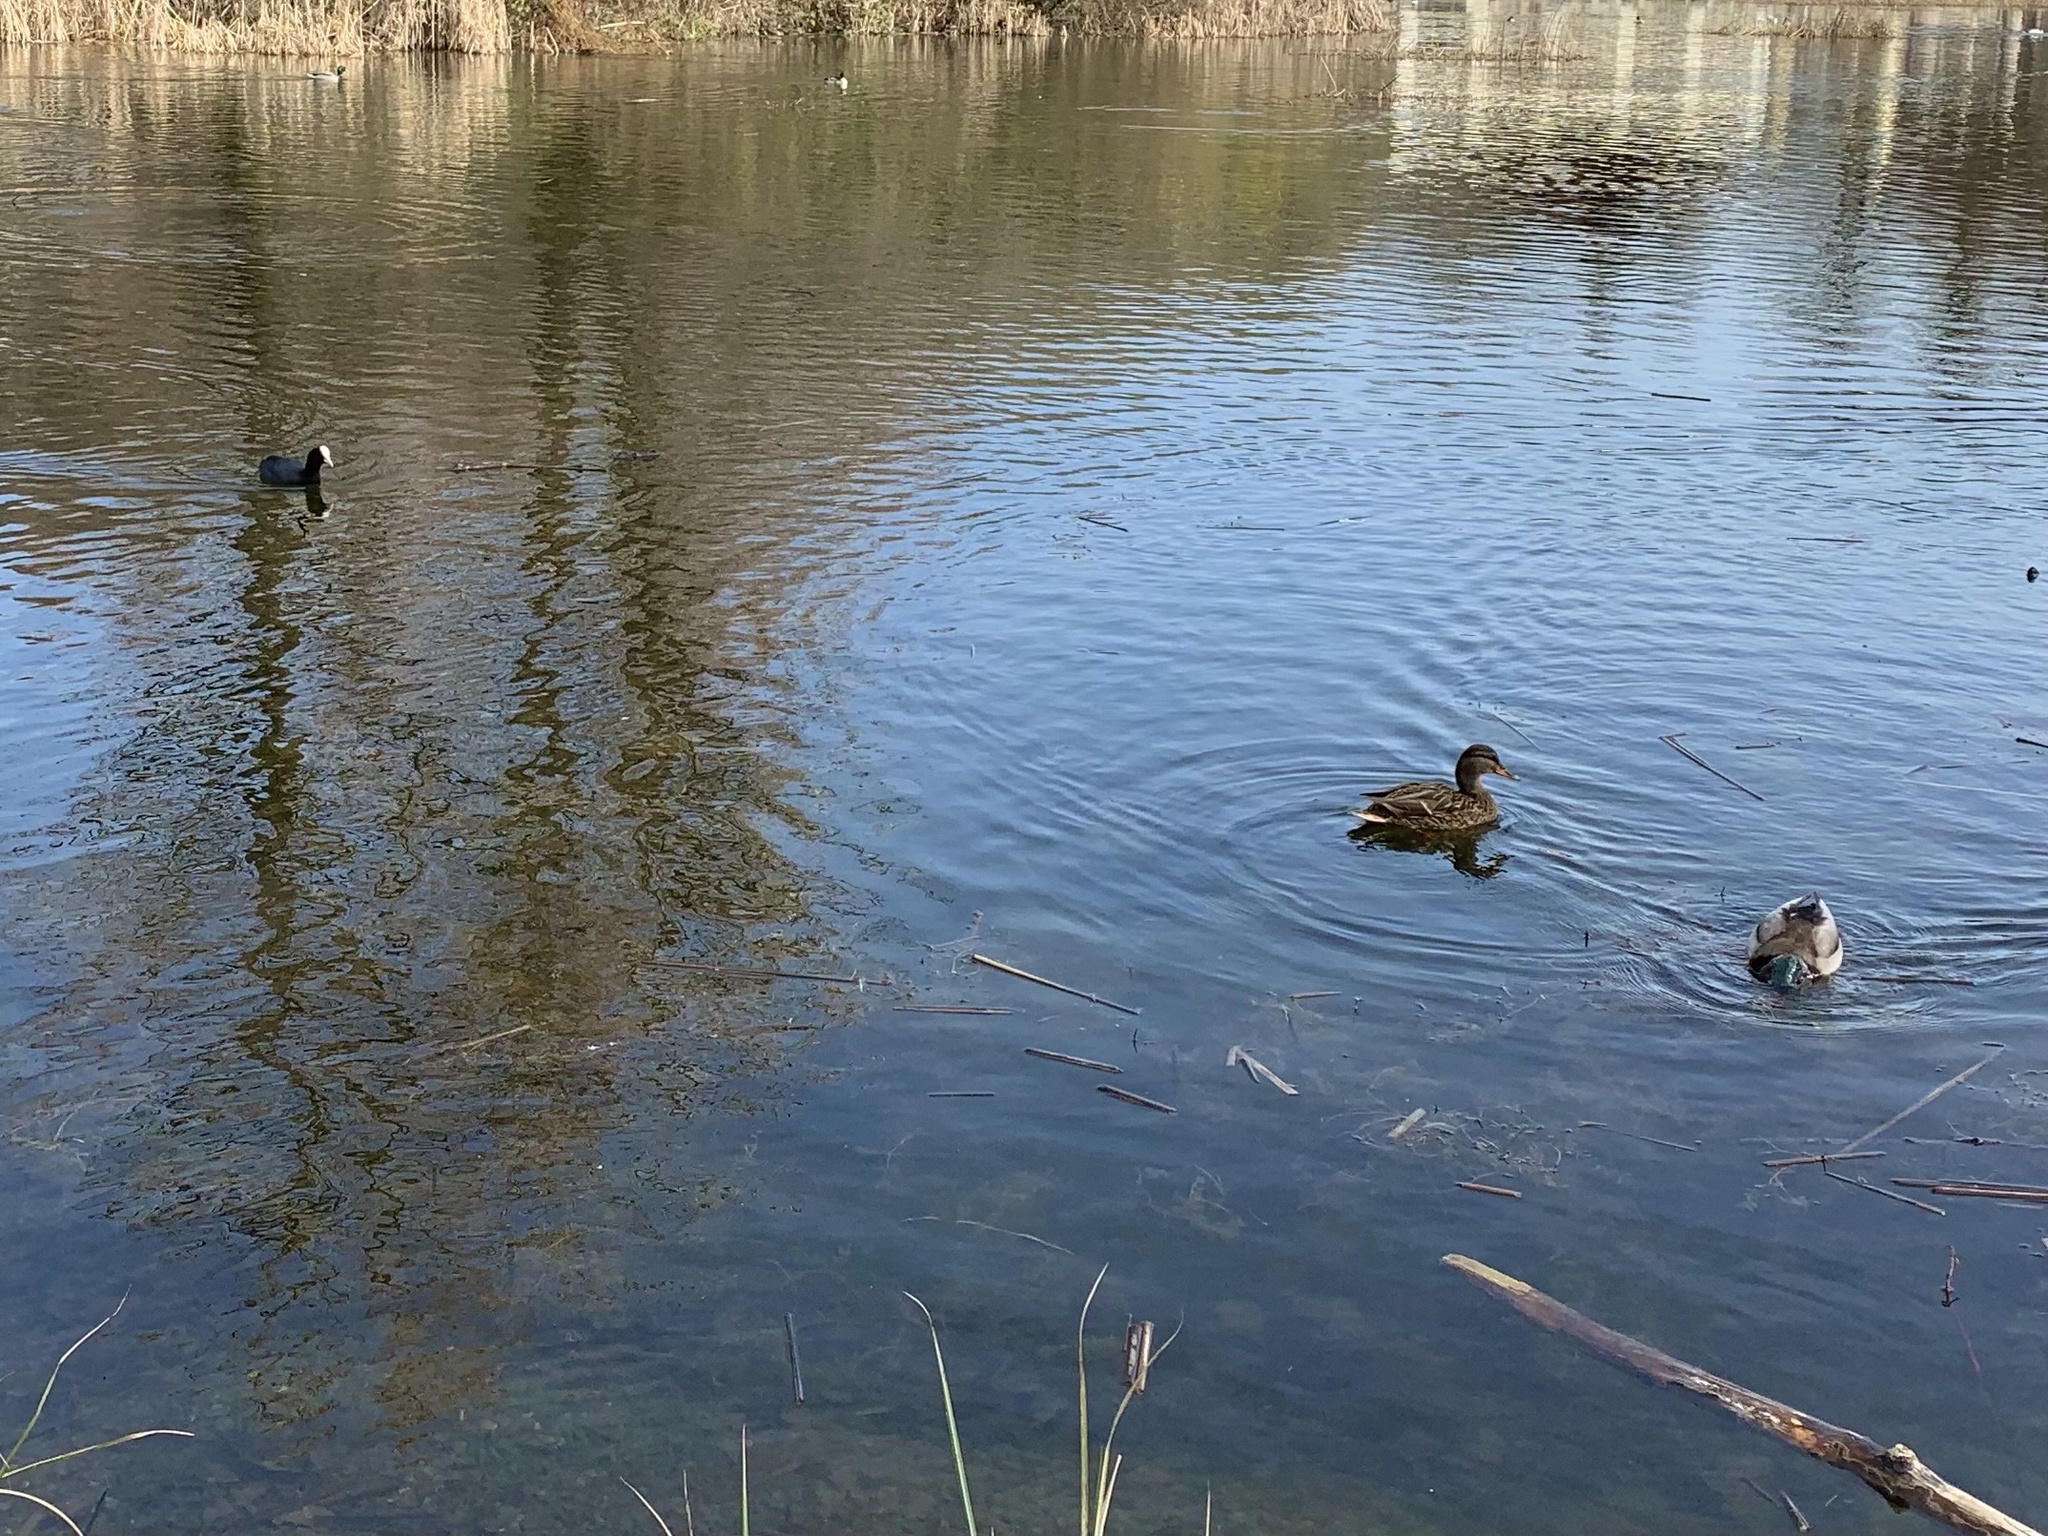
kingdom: Animalia
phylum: Chordata
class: Aves
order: Anseriformes
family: Anatidae
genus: Anas
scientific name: Anas platyrhynchos
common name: Mallard
